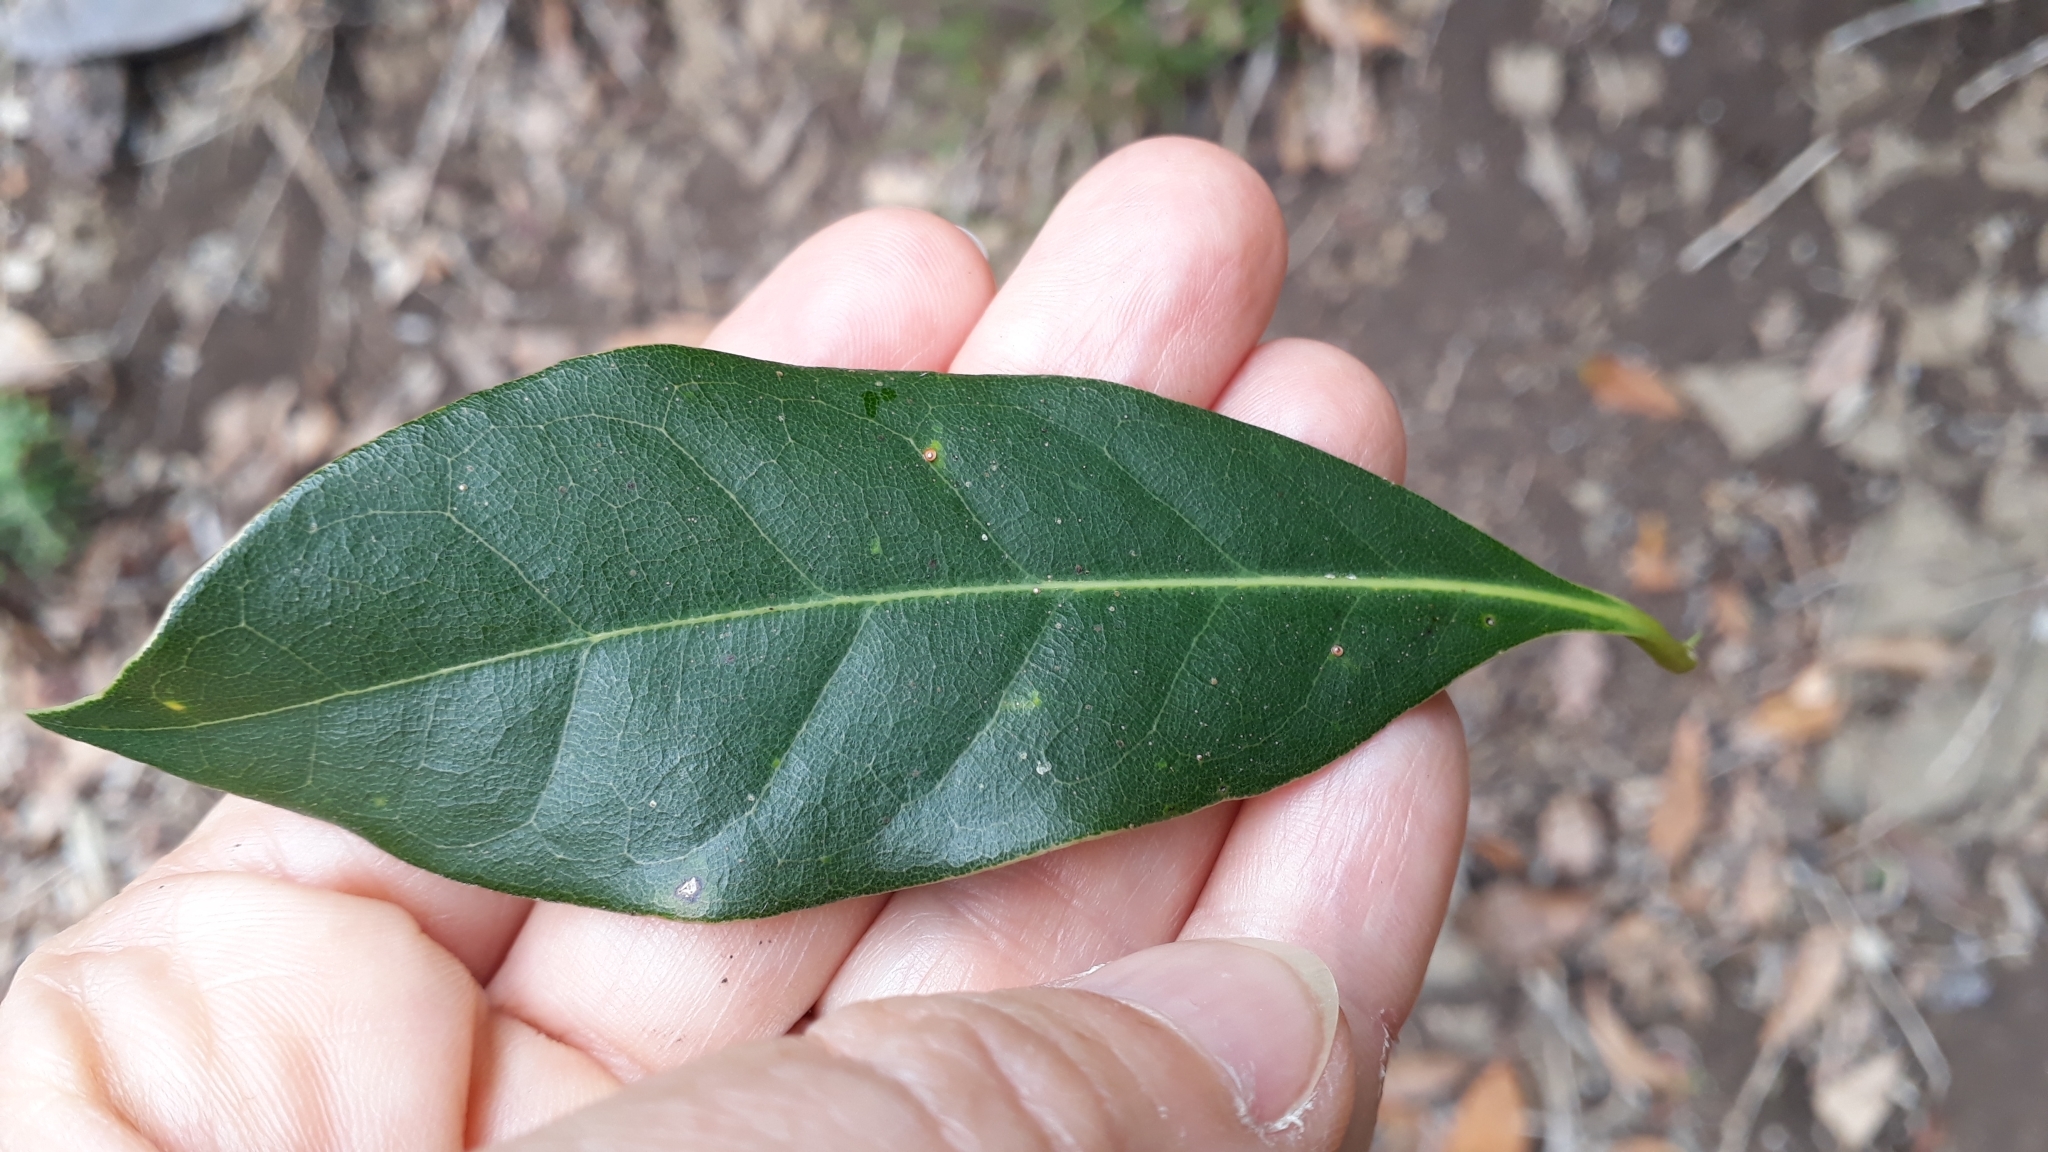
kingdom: Plantae
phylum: Tracheophyta
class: Magnoliopsida
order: Laurales
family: Lauraceae
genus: Apollonias
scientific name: Apollonias barbujana
